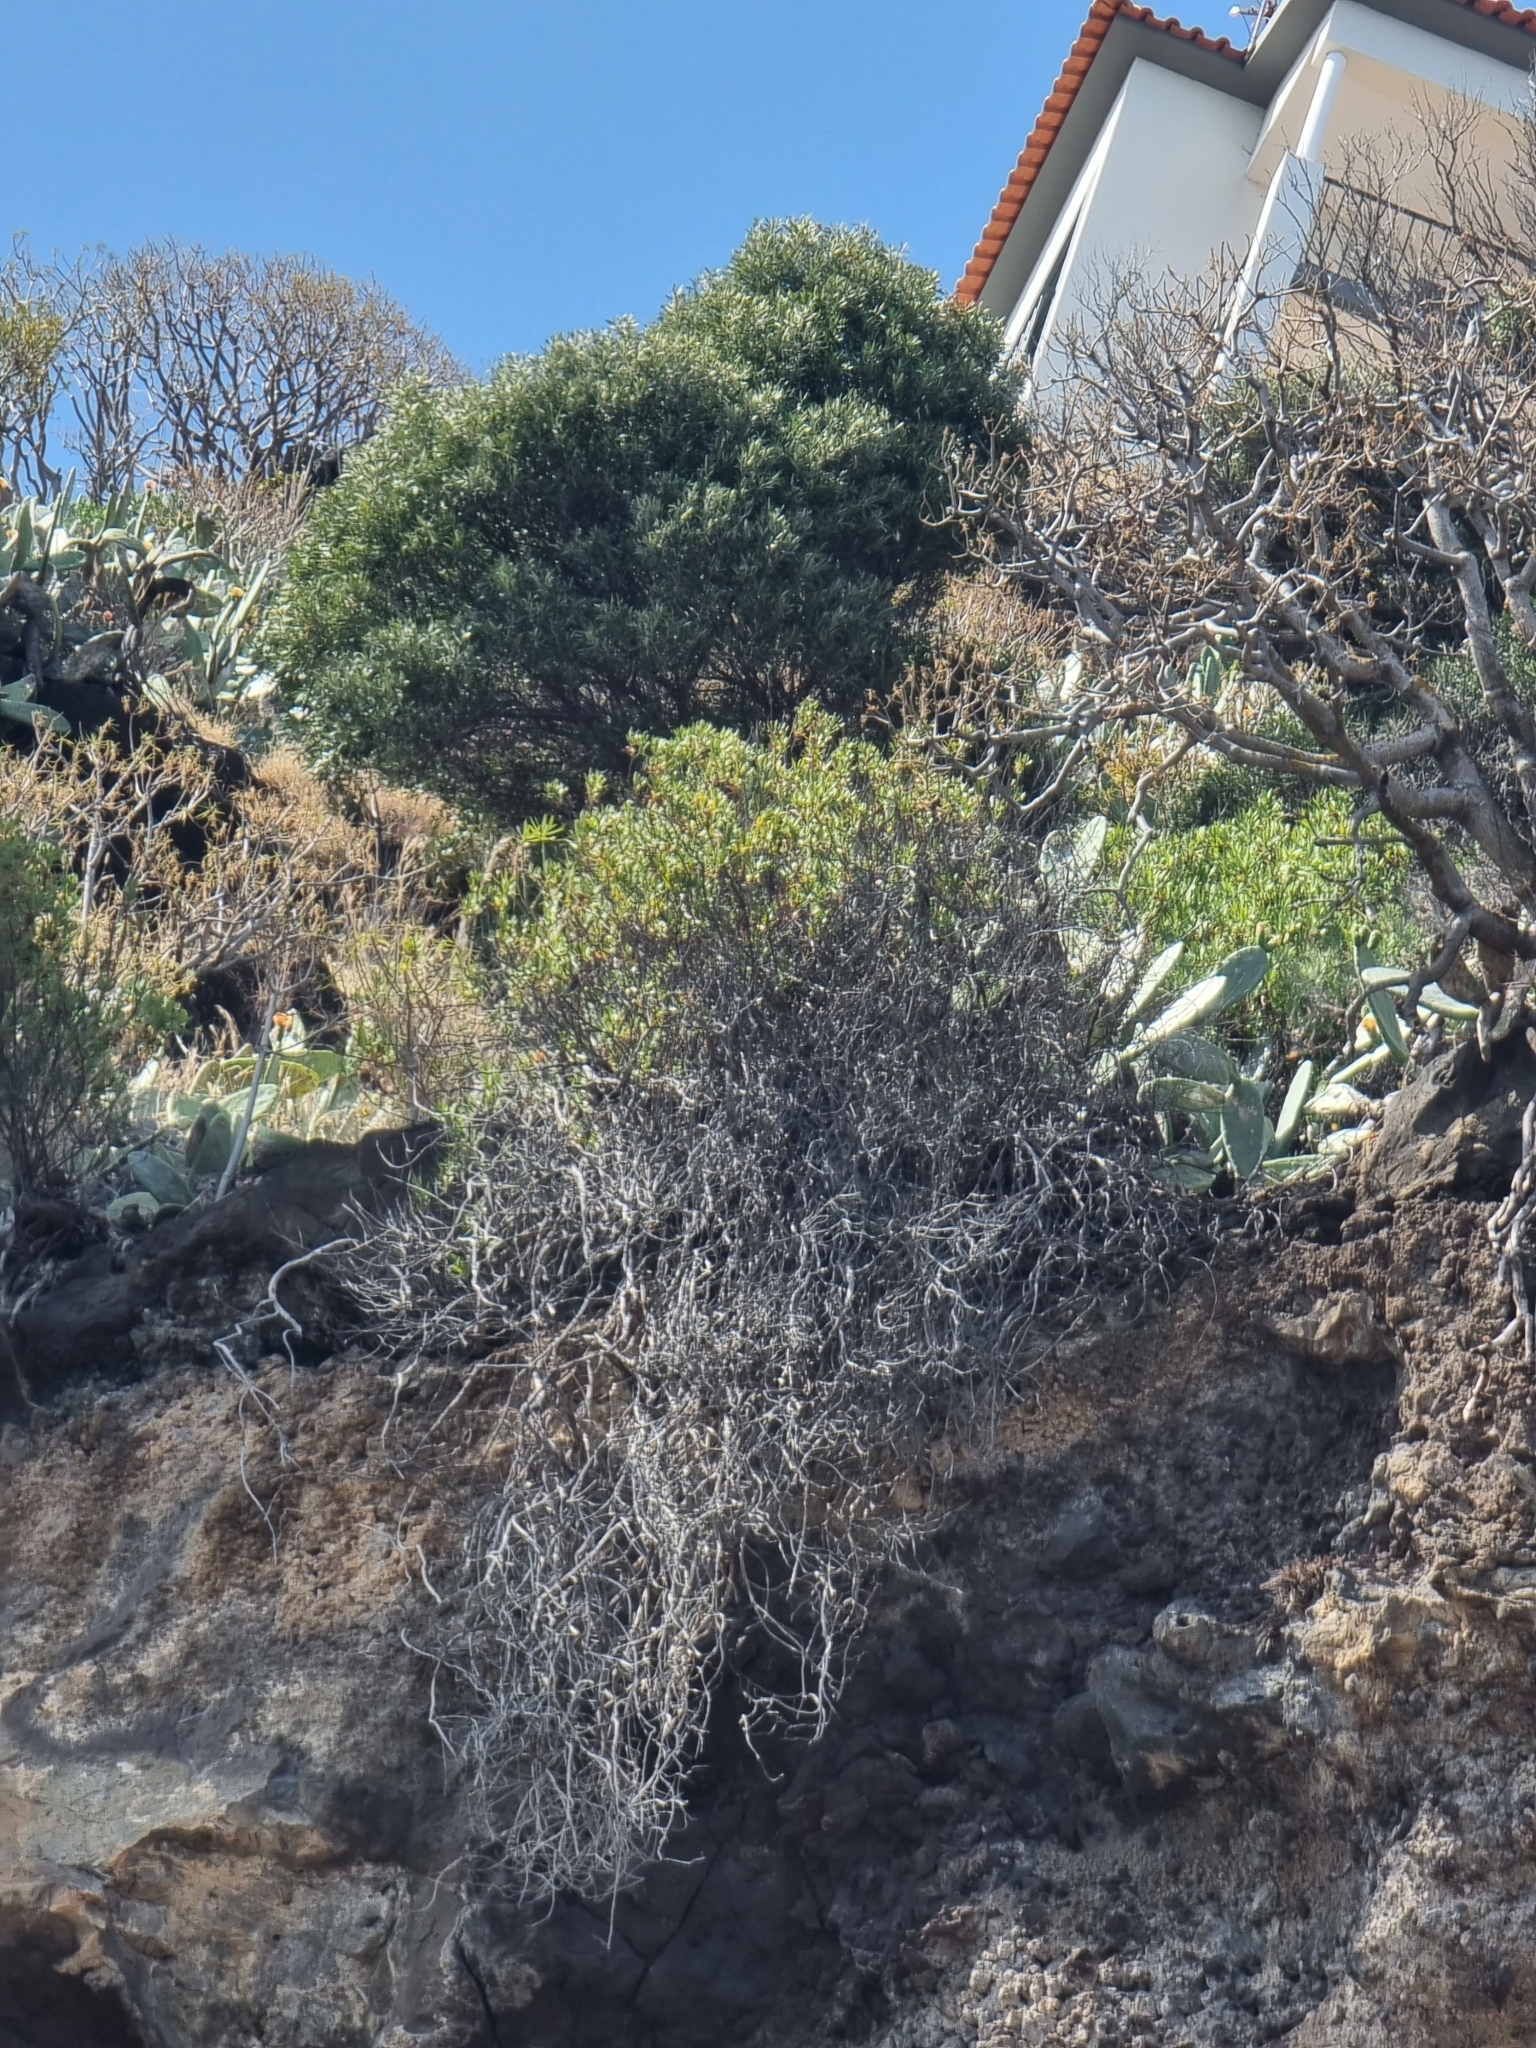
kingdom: Plantae
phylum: Tracheophyta
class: Magnoliopsida
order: Lamiales
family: Plantaginaceae
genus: Globularia
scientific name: Globularia salicina
